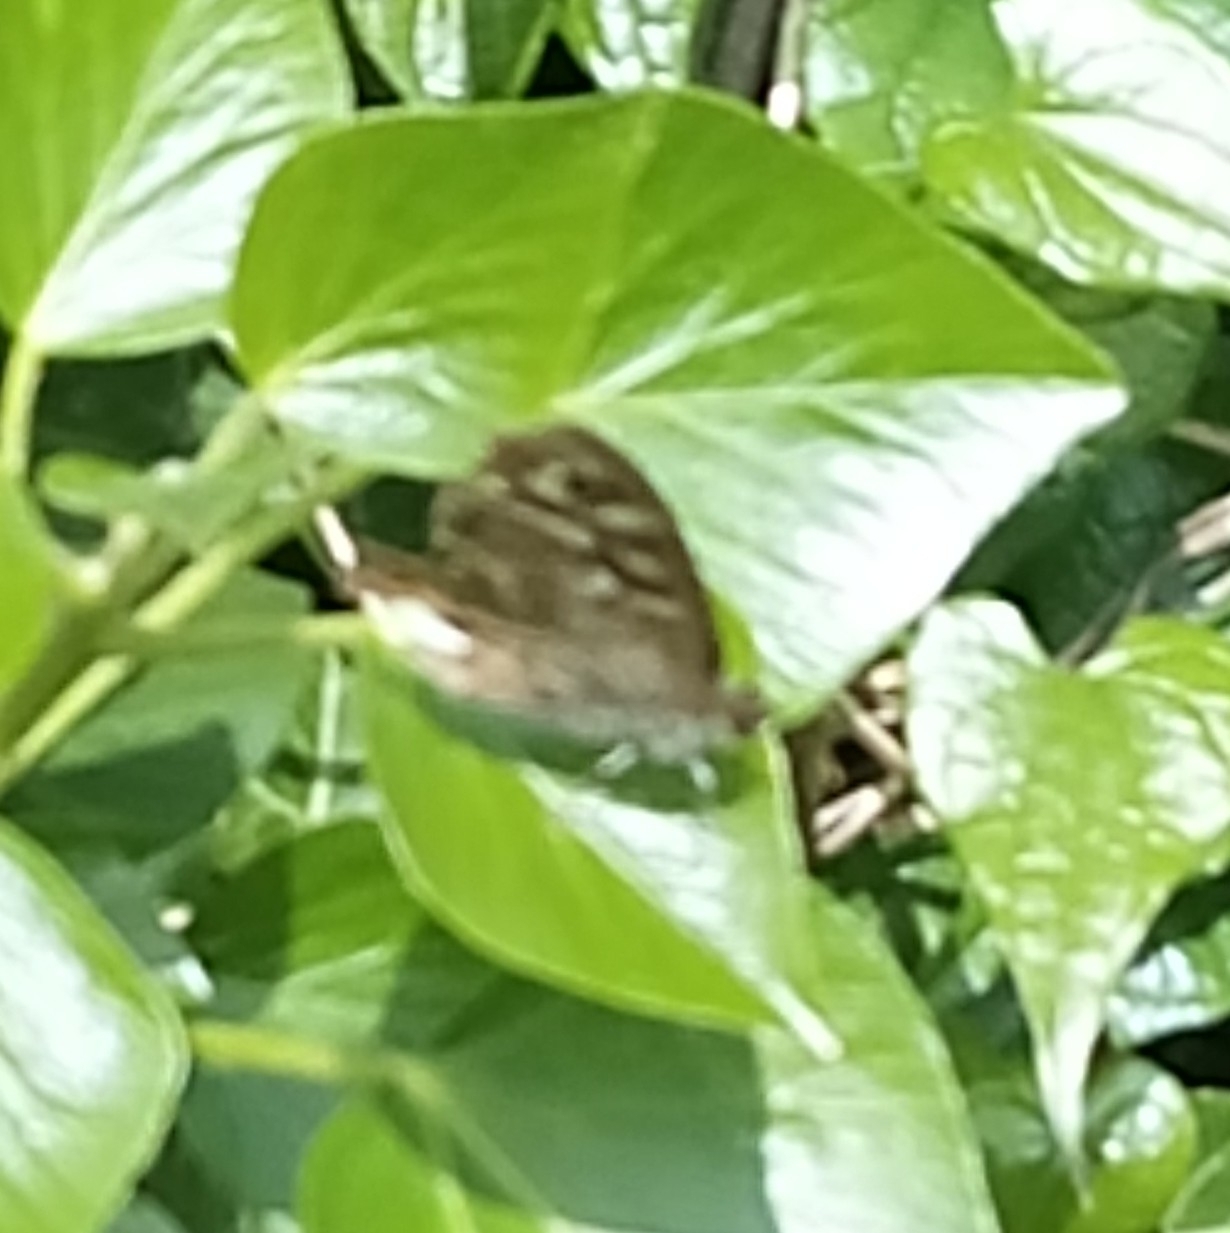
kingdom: Animalia
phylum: Arthropoda
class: Insecta
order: Lepidoptera
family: Nymphalidae
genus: Pararge
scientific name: Pararge aegeria
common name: Speckled wood
